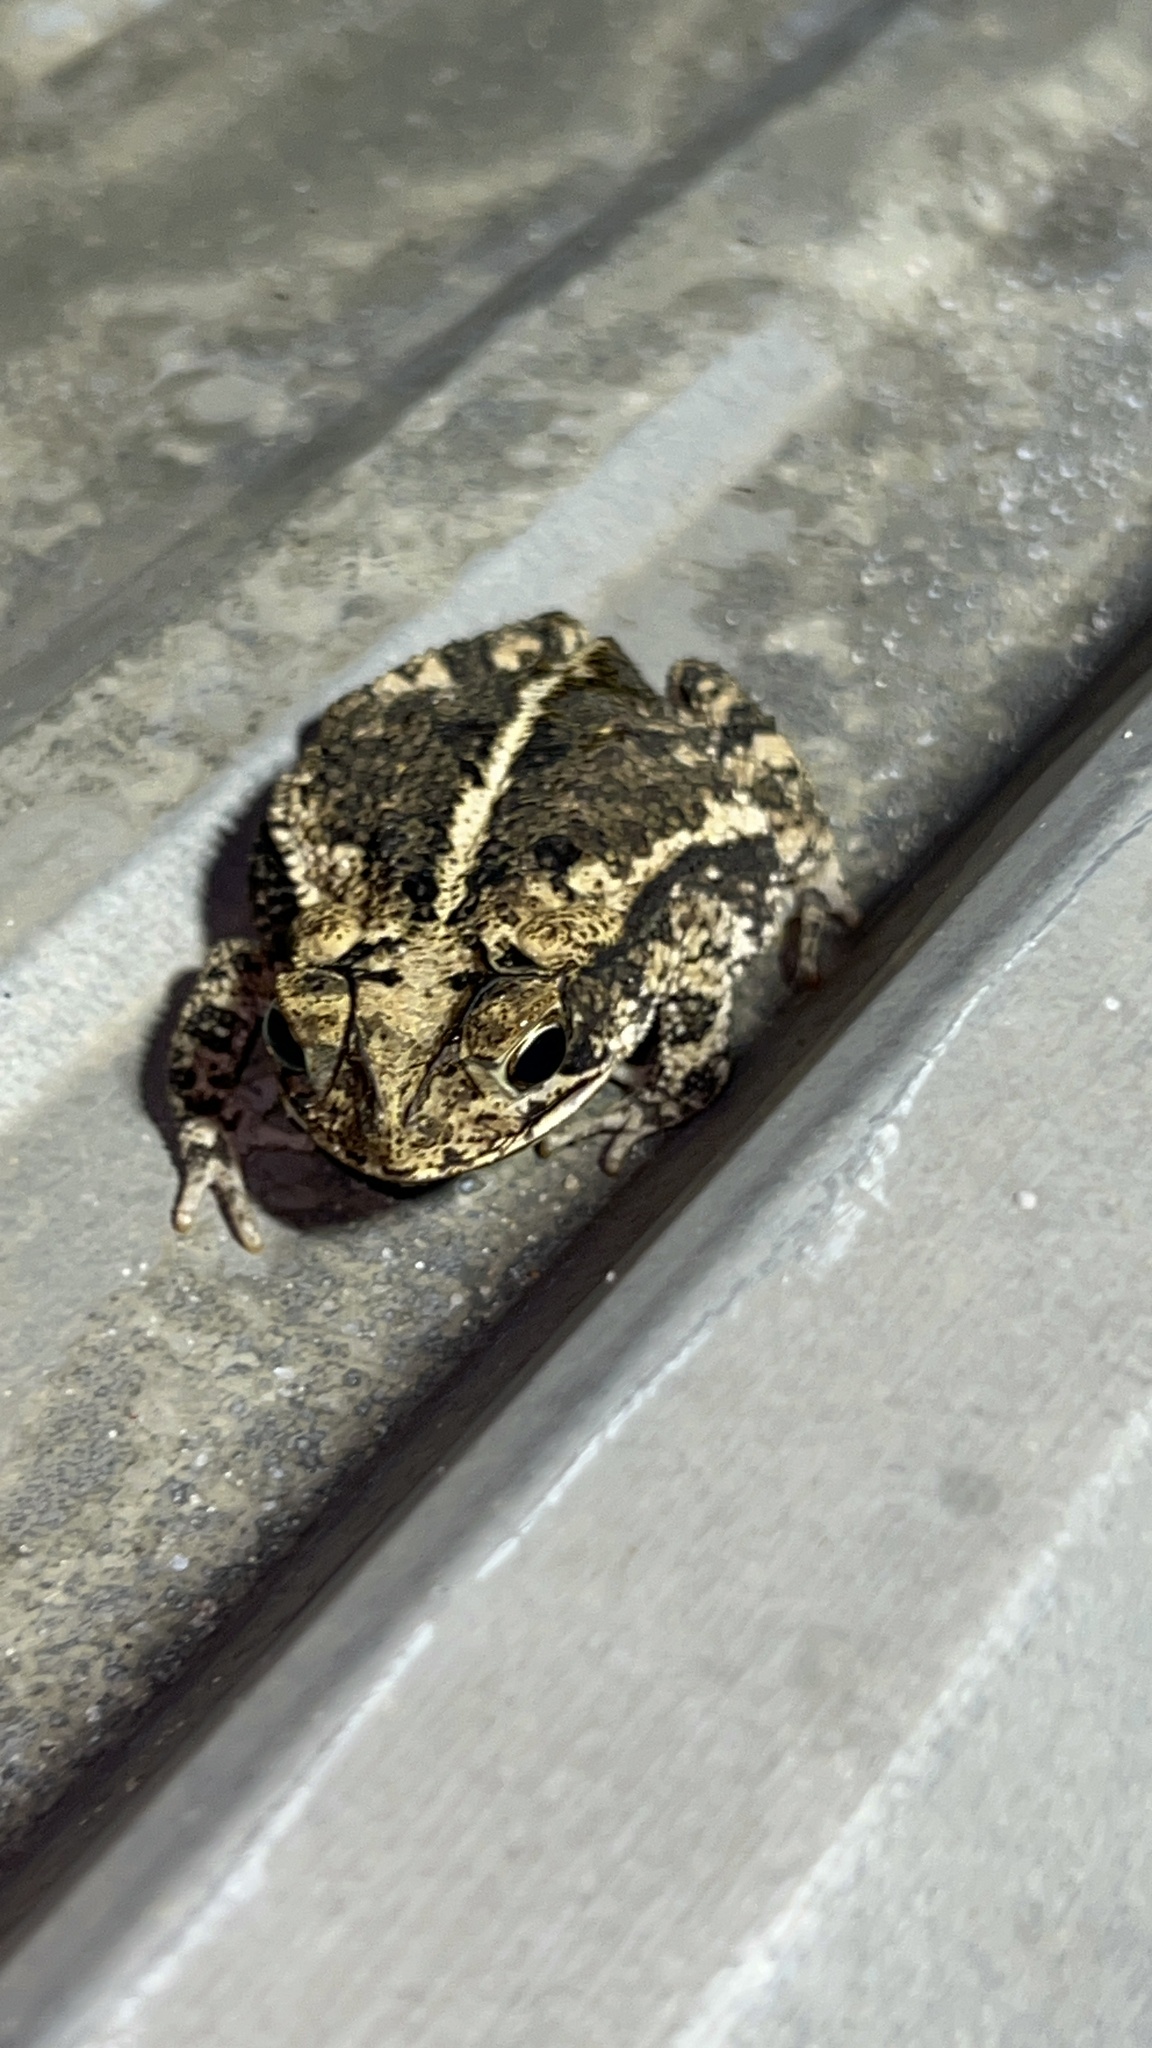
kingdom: Animalia
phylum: Chordata
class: Amphibia
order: Anura
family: Bufonidae
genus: Incilius
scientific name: Incilius nebulifer
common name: Gulf coast toad
